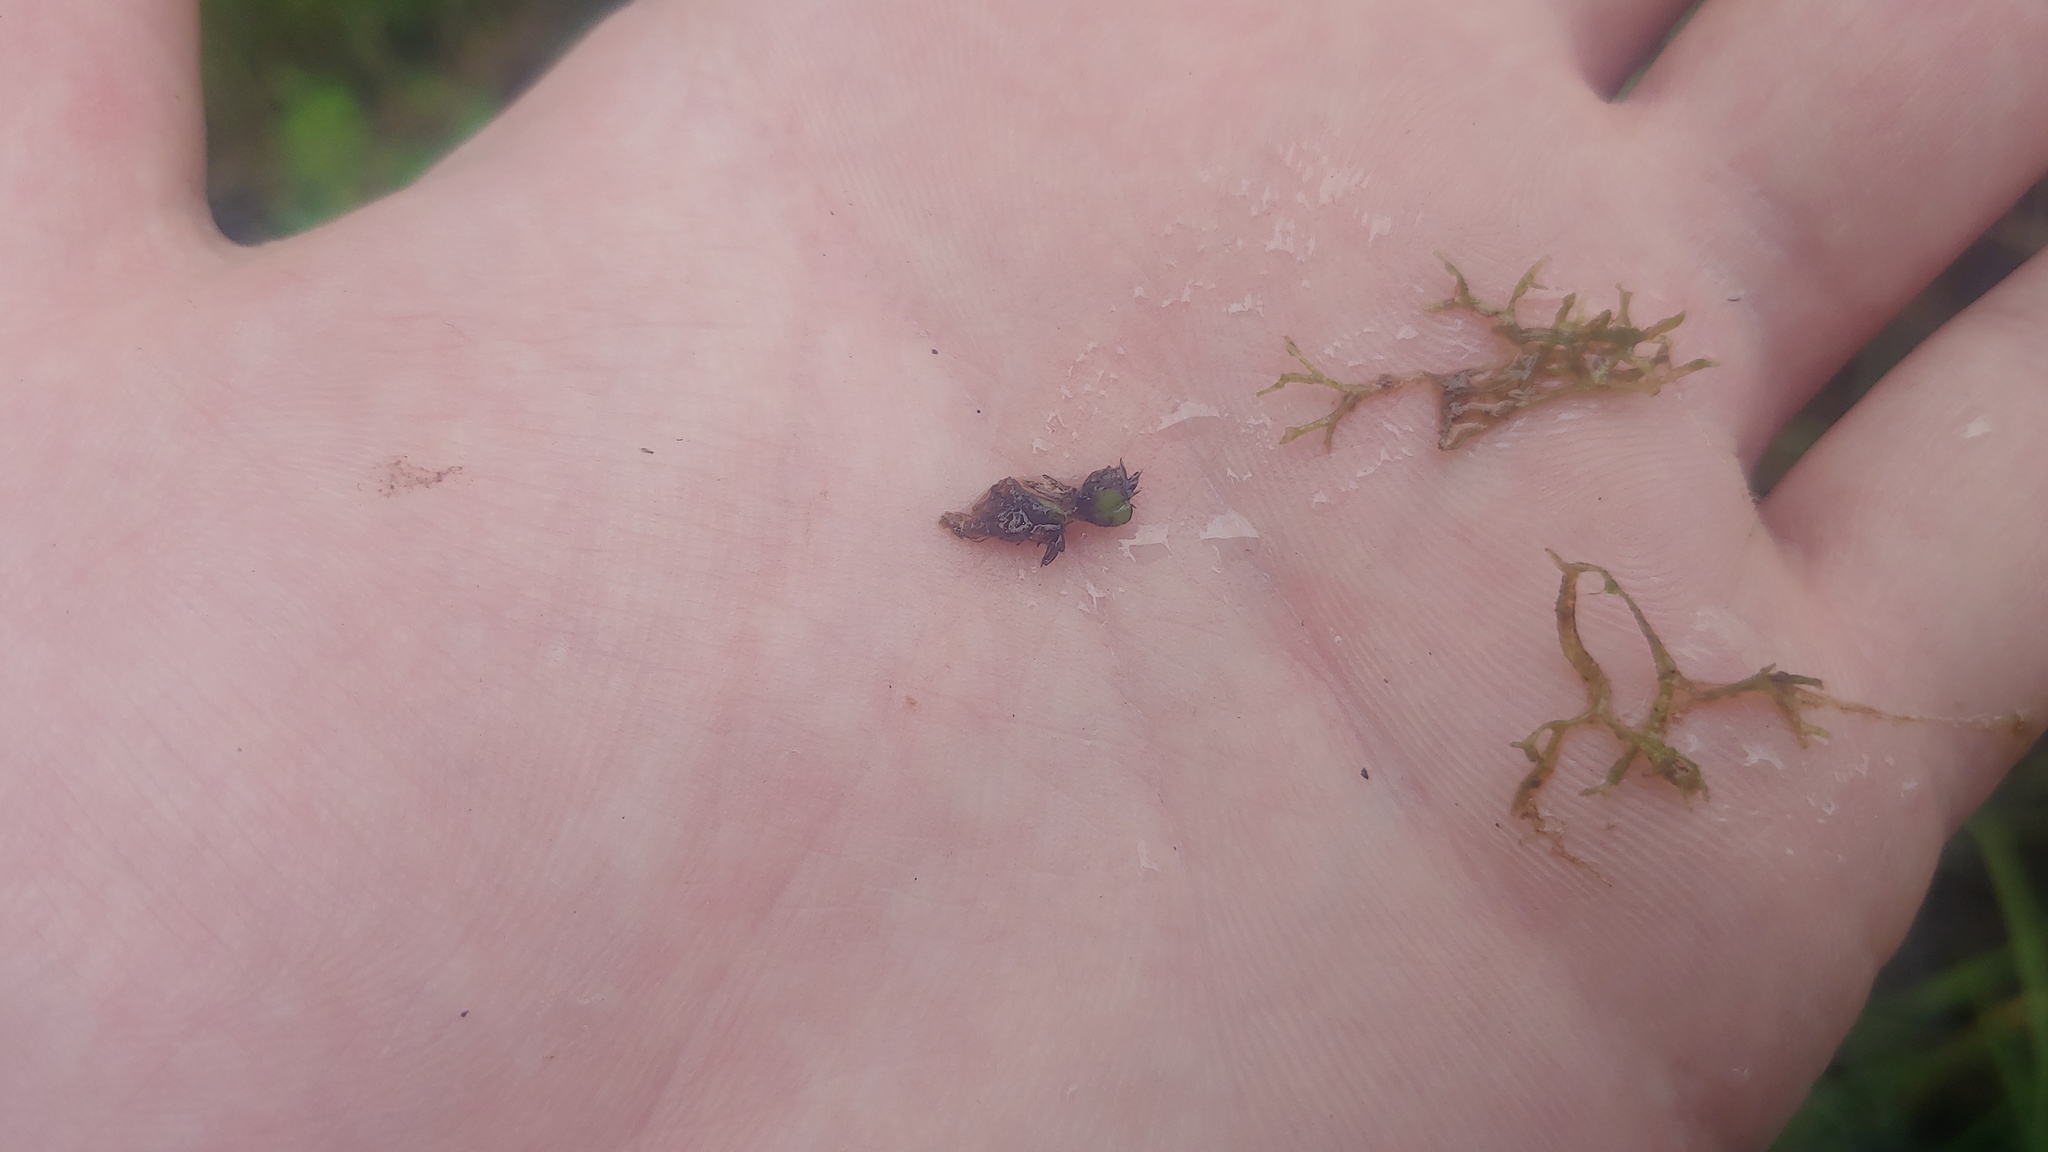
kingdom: Plantae
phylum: Marchantiophyta
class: Marchantiopsida
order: Marchantiales
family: Ricciaceae
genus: Riccia
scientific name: Riccia fluitans
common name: Floating crystalwort
